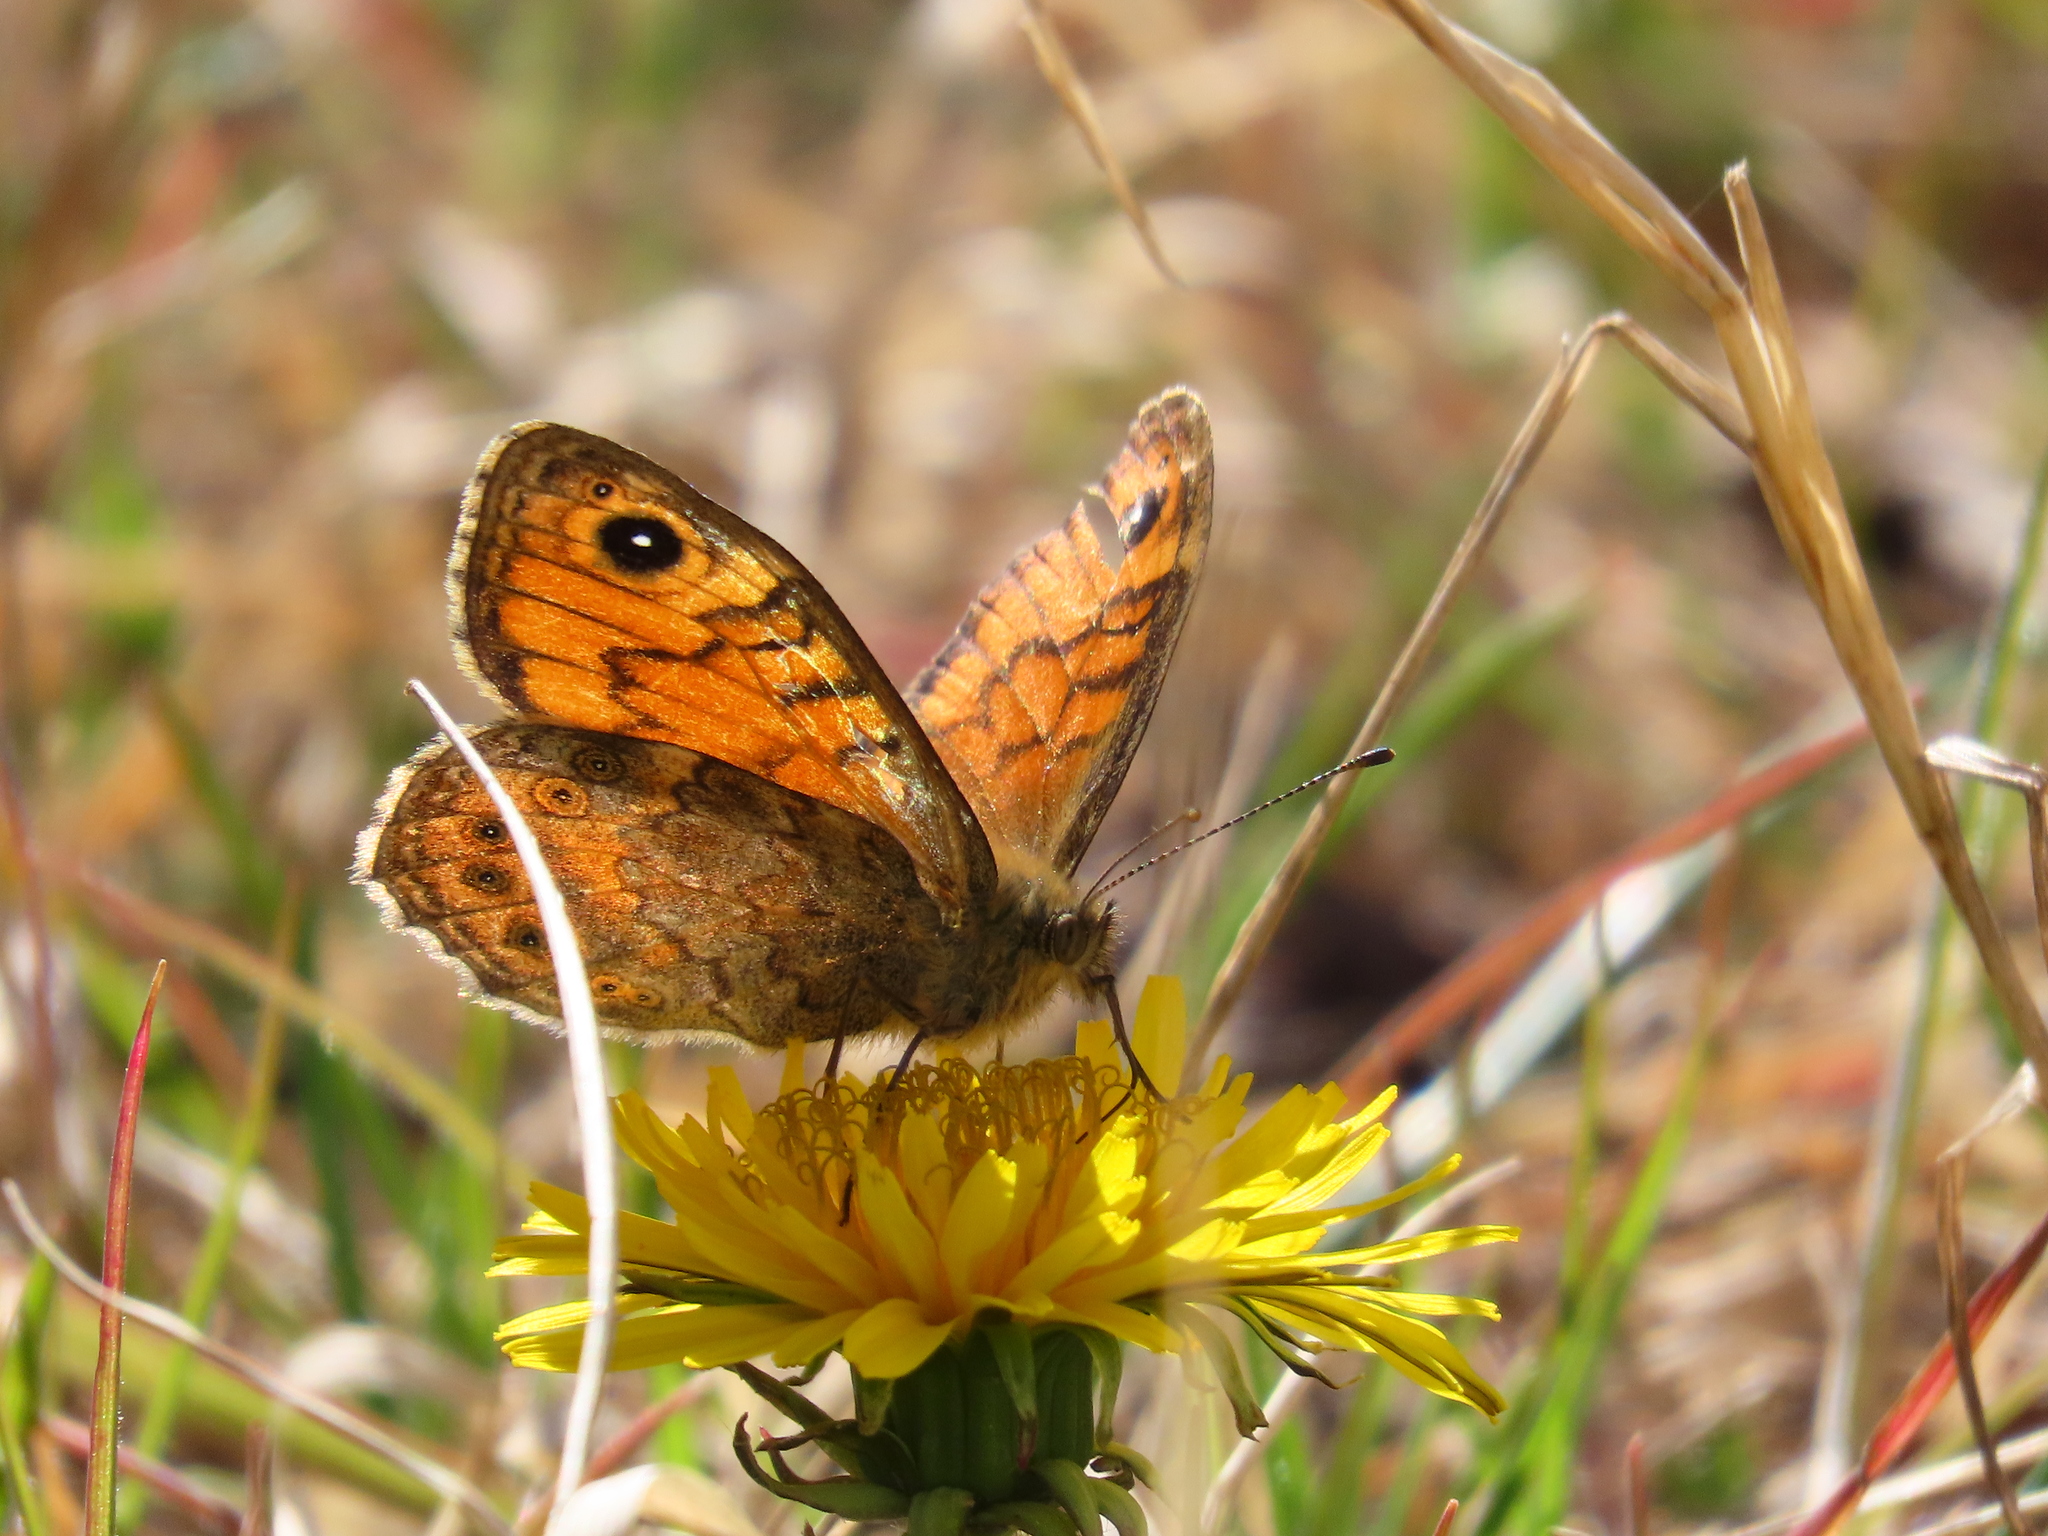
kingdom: Animalia
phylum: Arthropoda
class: Insecta
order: Lepidoptera
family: Nymphalidae
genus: Pararge
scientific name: Pararge Lasiommata megera
